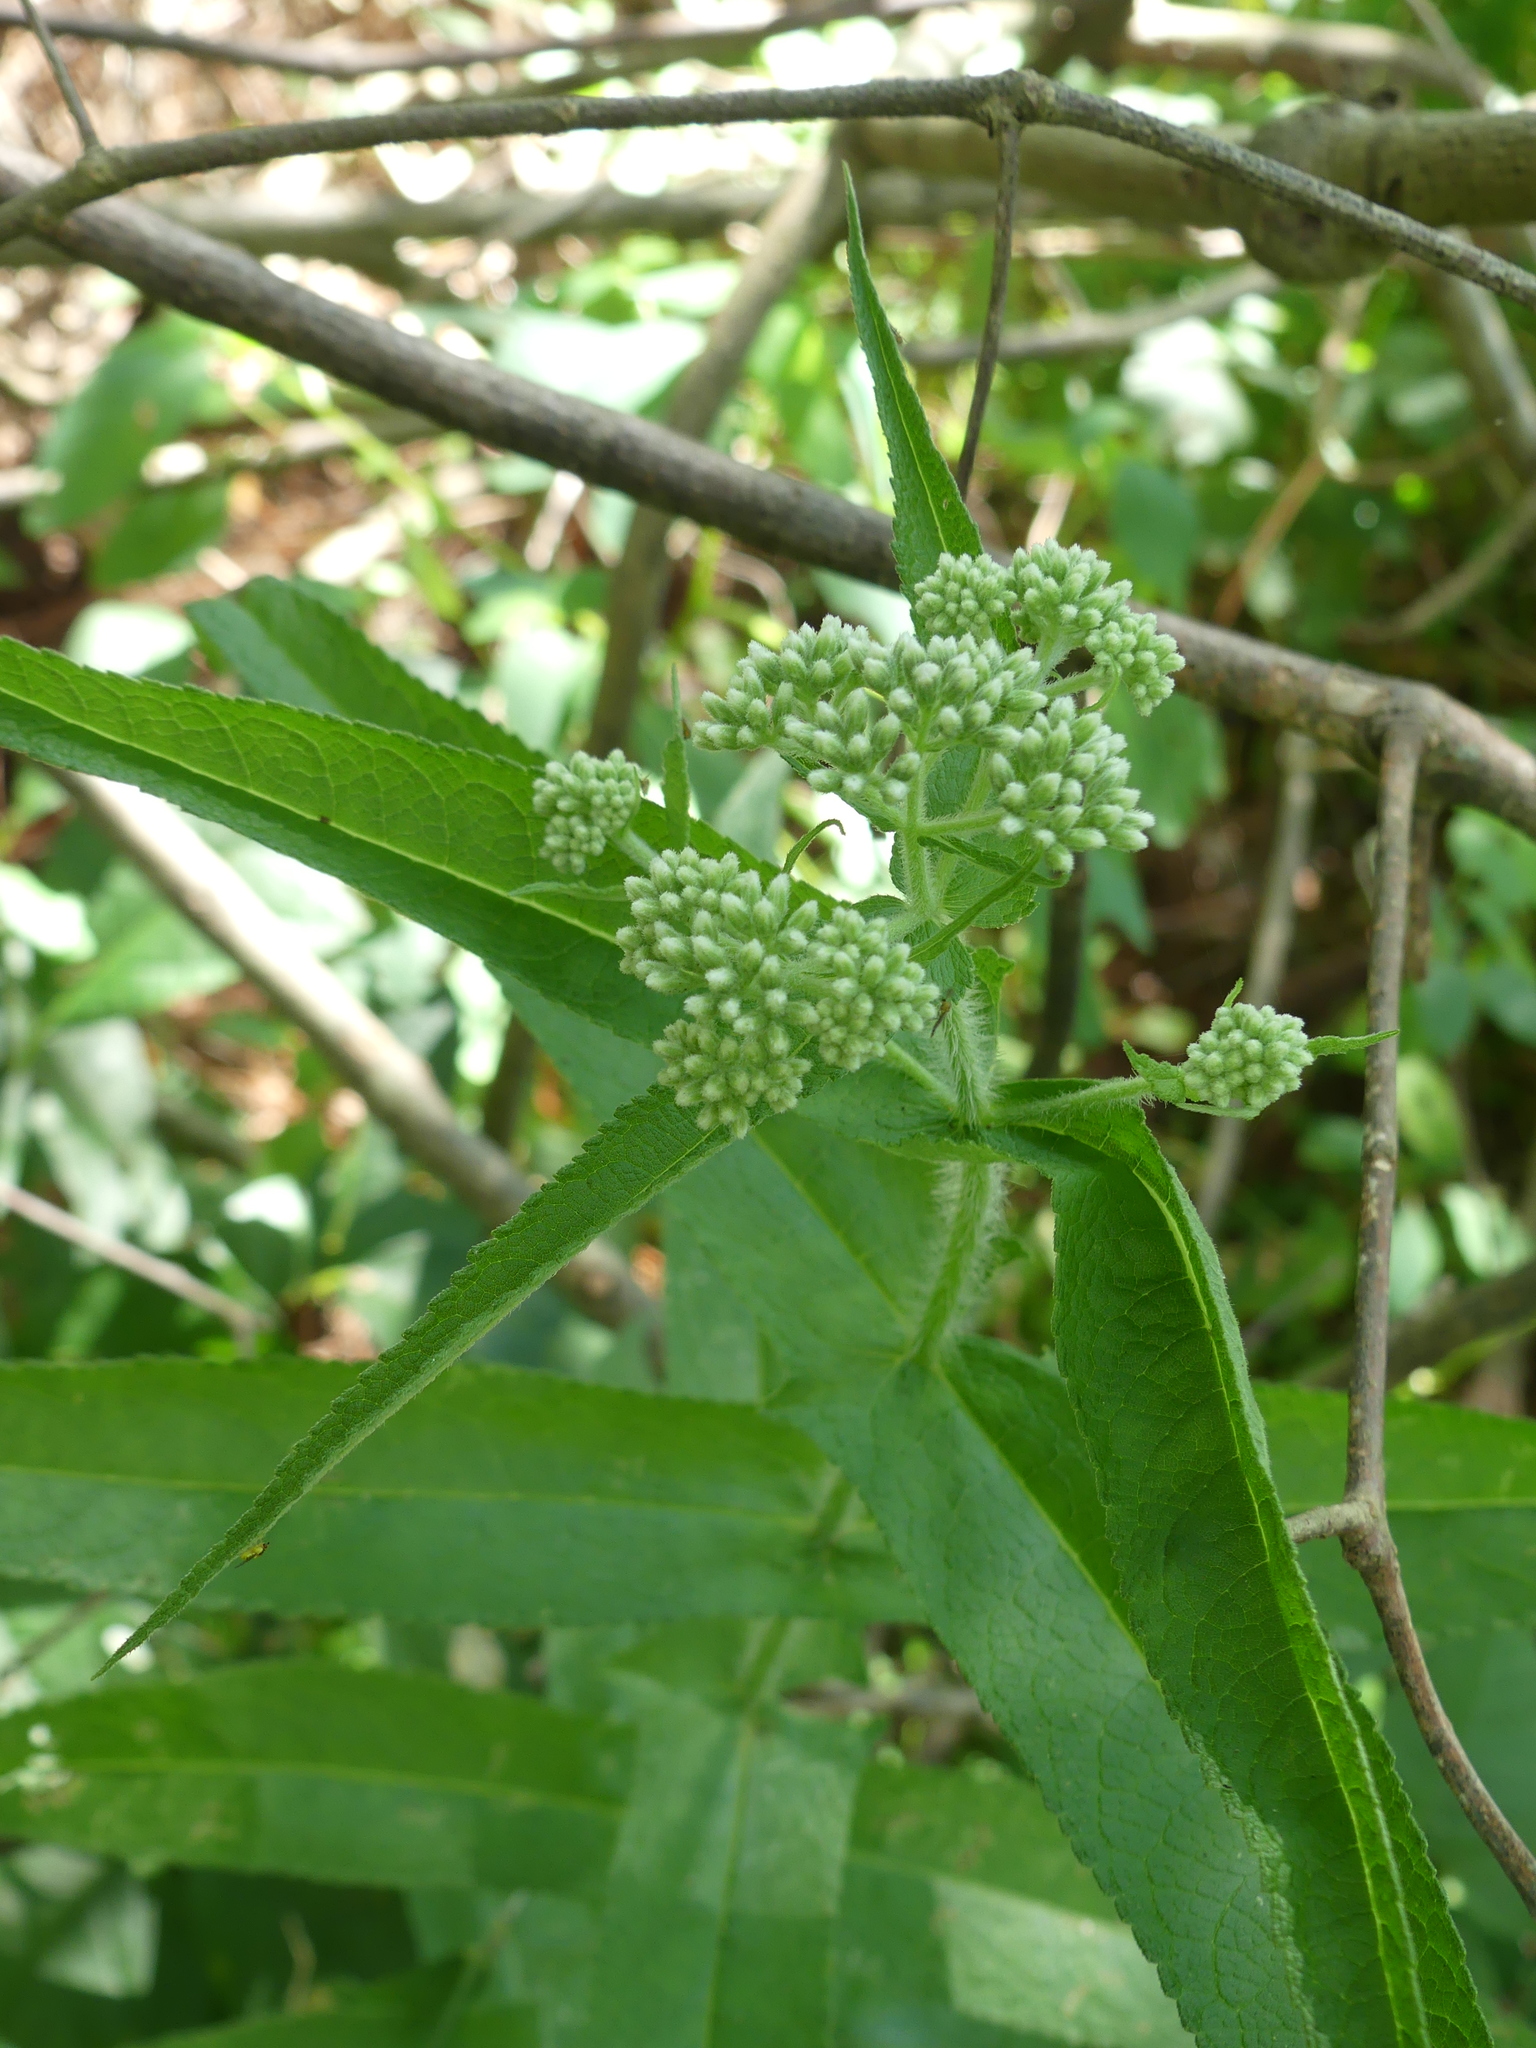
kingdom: Plantae
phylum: Tracheophyta
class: Magnoliopsida
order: Asterales
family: Asteraceae
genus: Eupatorium
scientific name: Eupatorium perfoliatum
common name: Boneset
